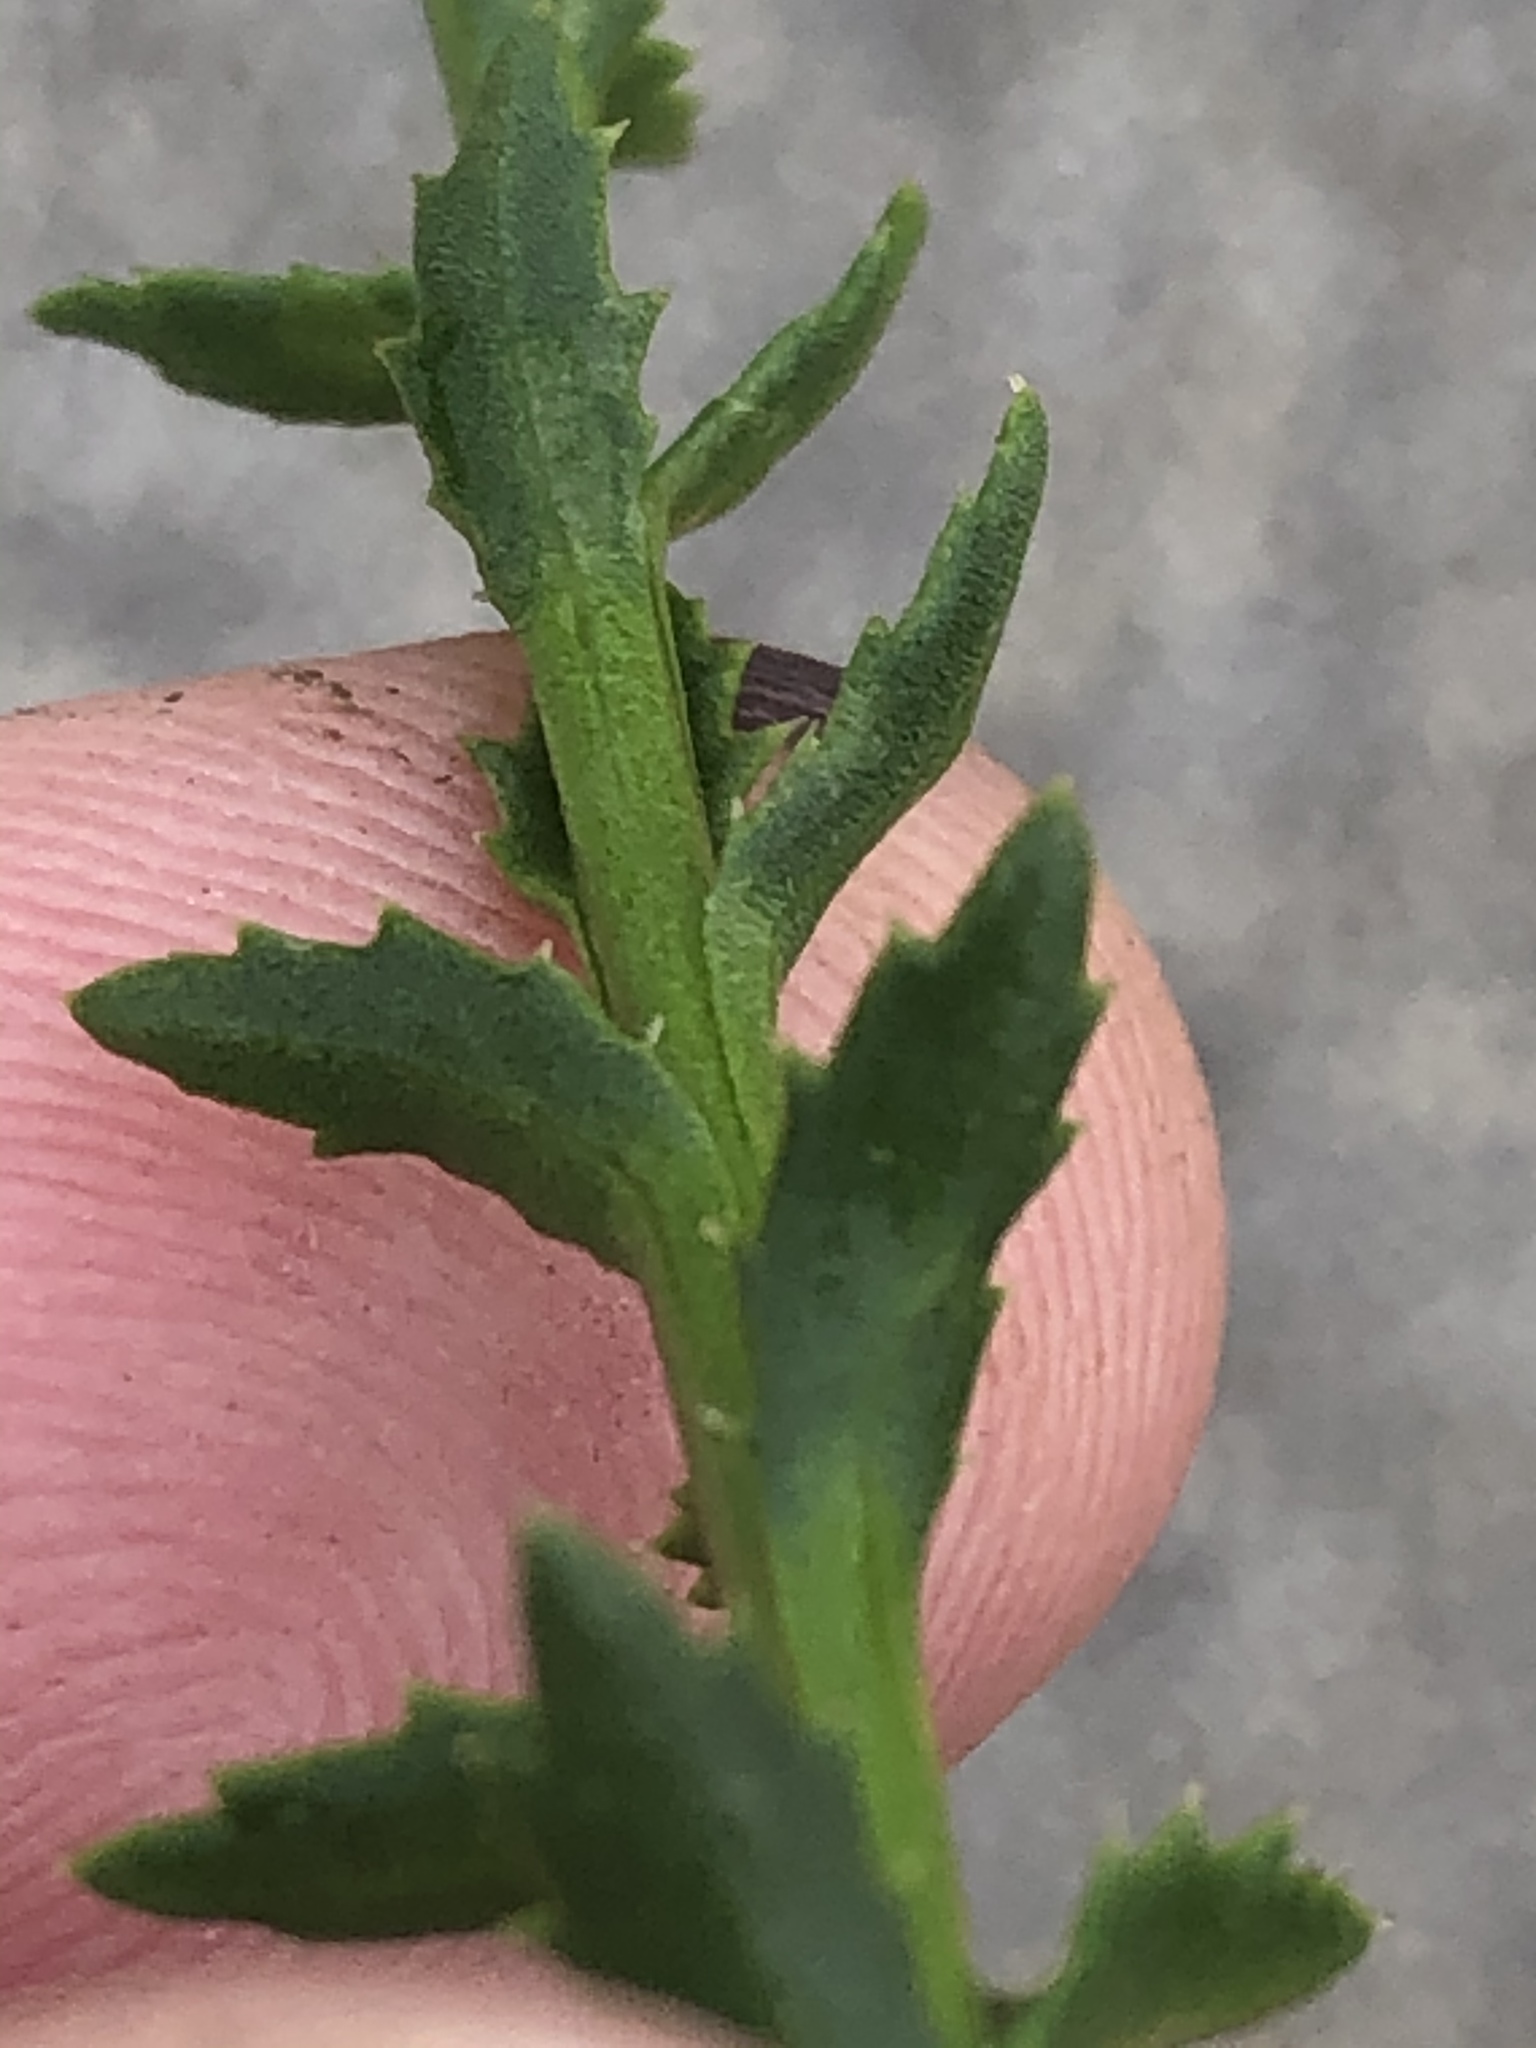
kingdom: Plantae
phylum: Tracheophyta
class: Magnoliopsida
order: Asterales
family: Asteraceae
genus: Athanasia
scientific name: Athanasia dentata
